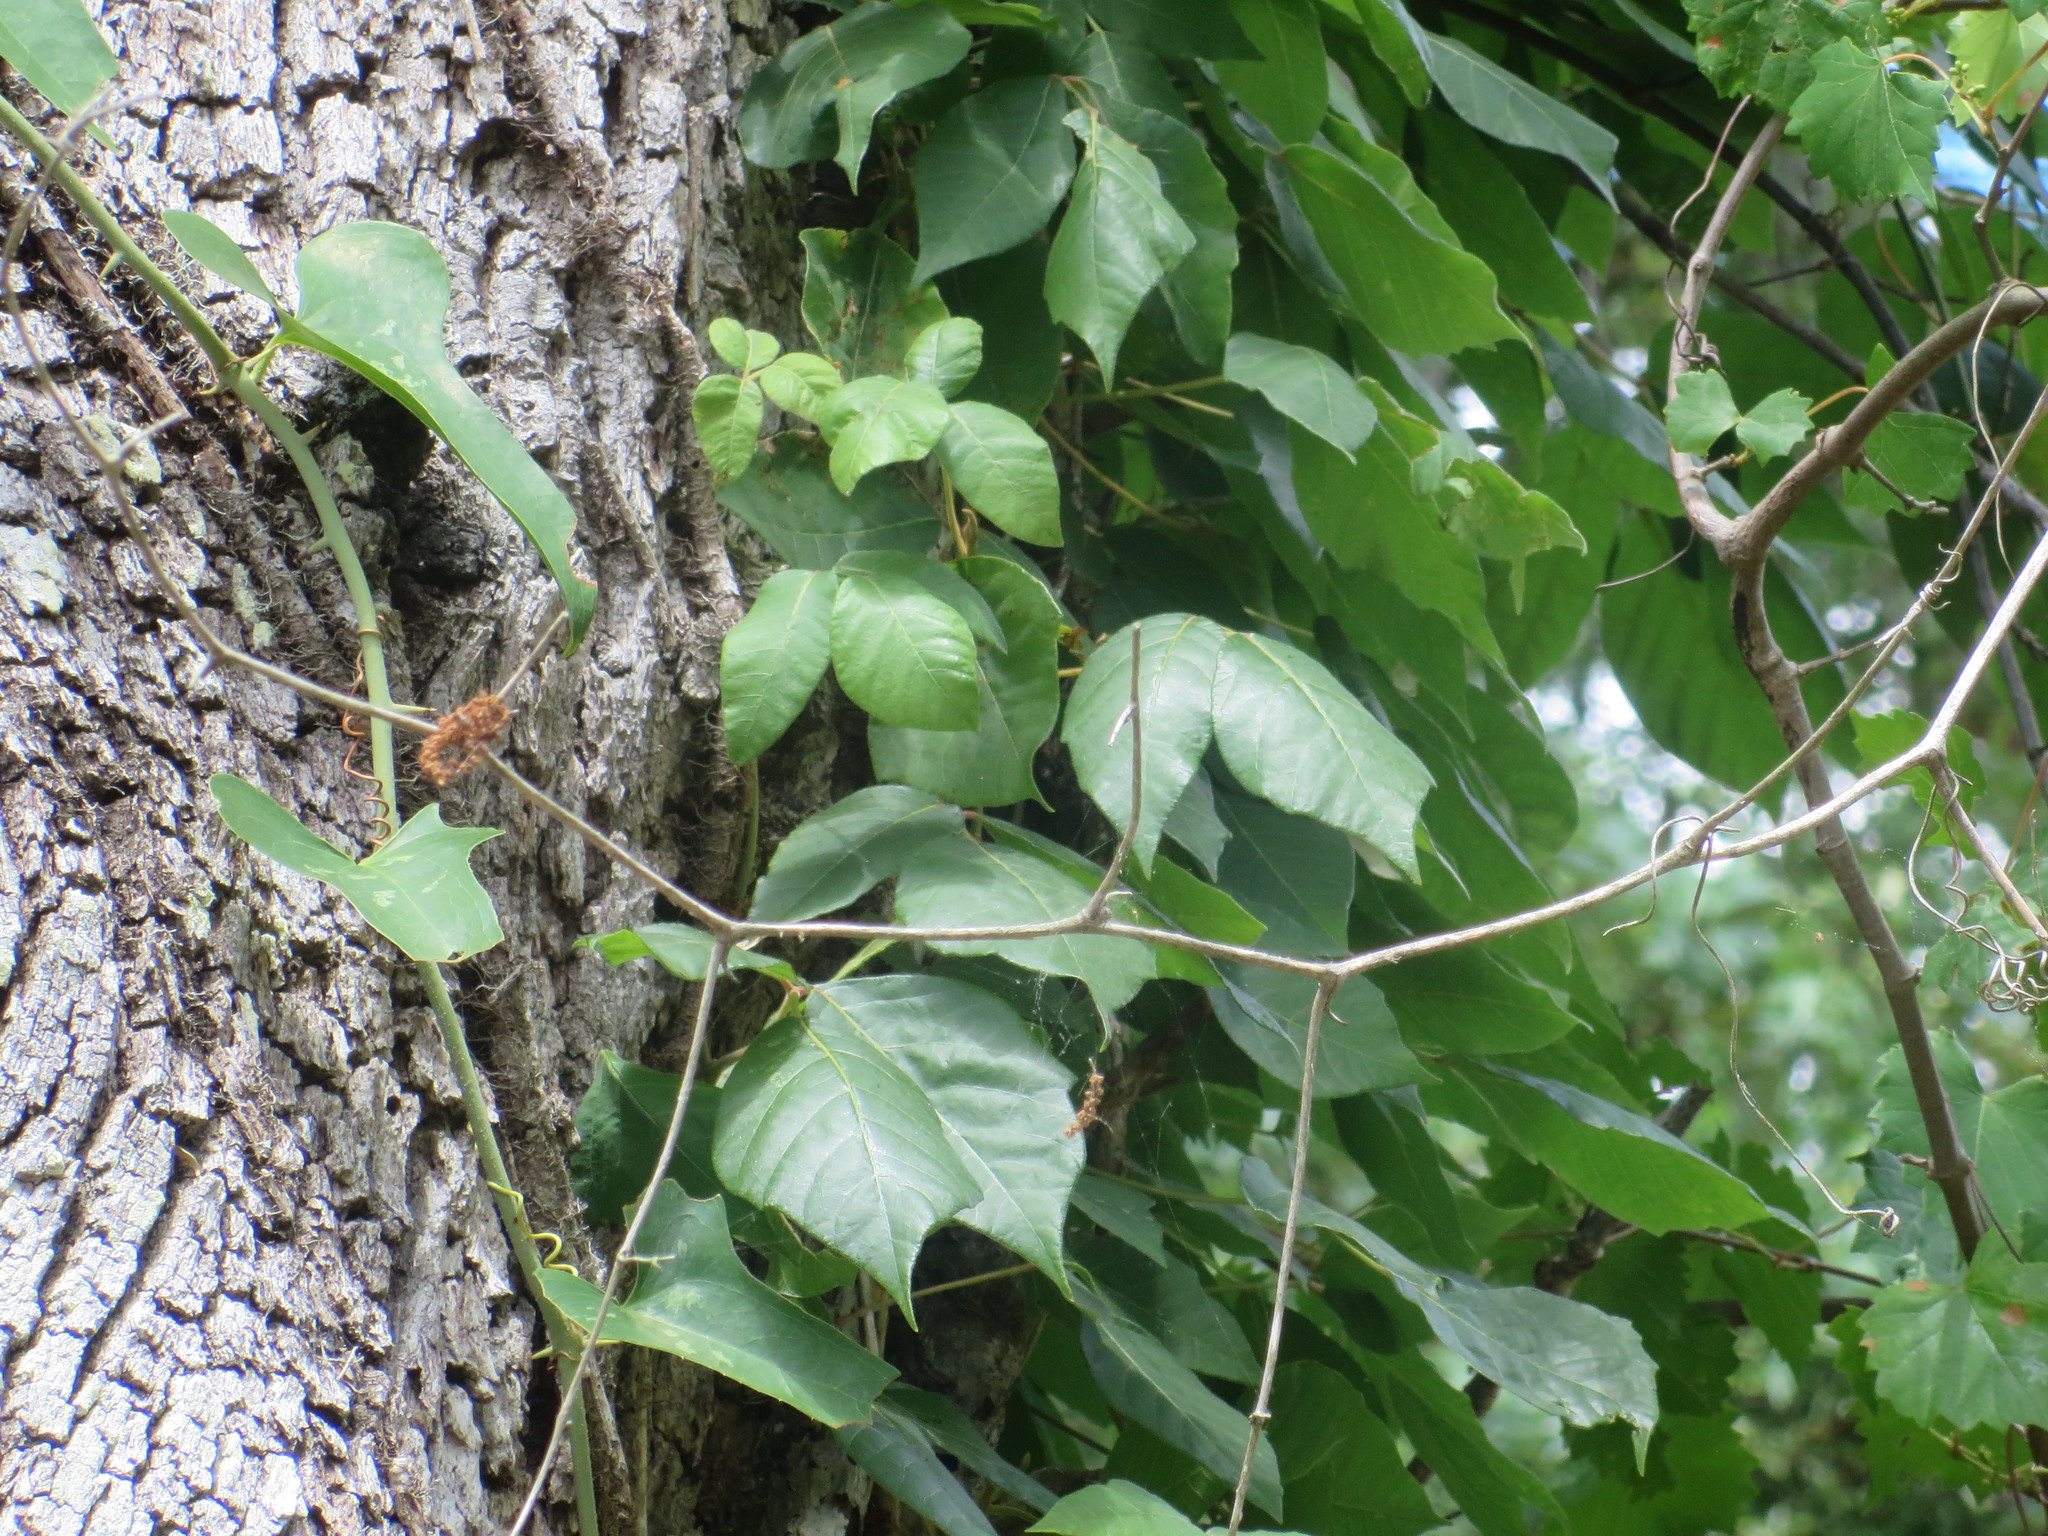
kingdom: Plantae
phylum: Tracheophyta
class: Magnoliopsida
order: Sapindales
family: Anacardiaceae
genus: Toxicodendron
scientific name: Toxicodendron radicans
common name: Poison ivy
